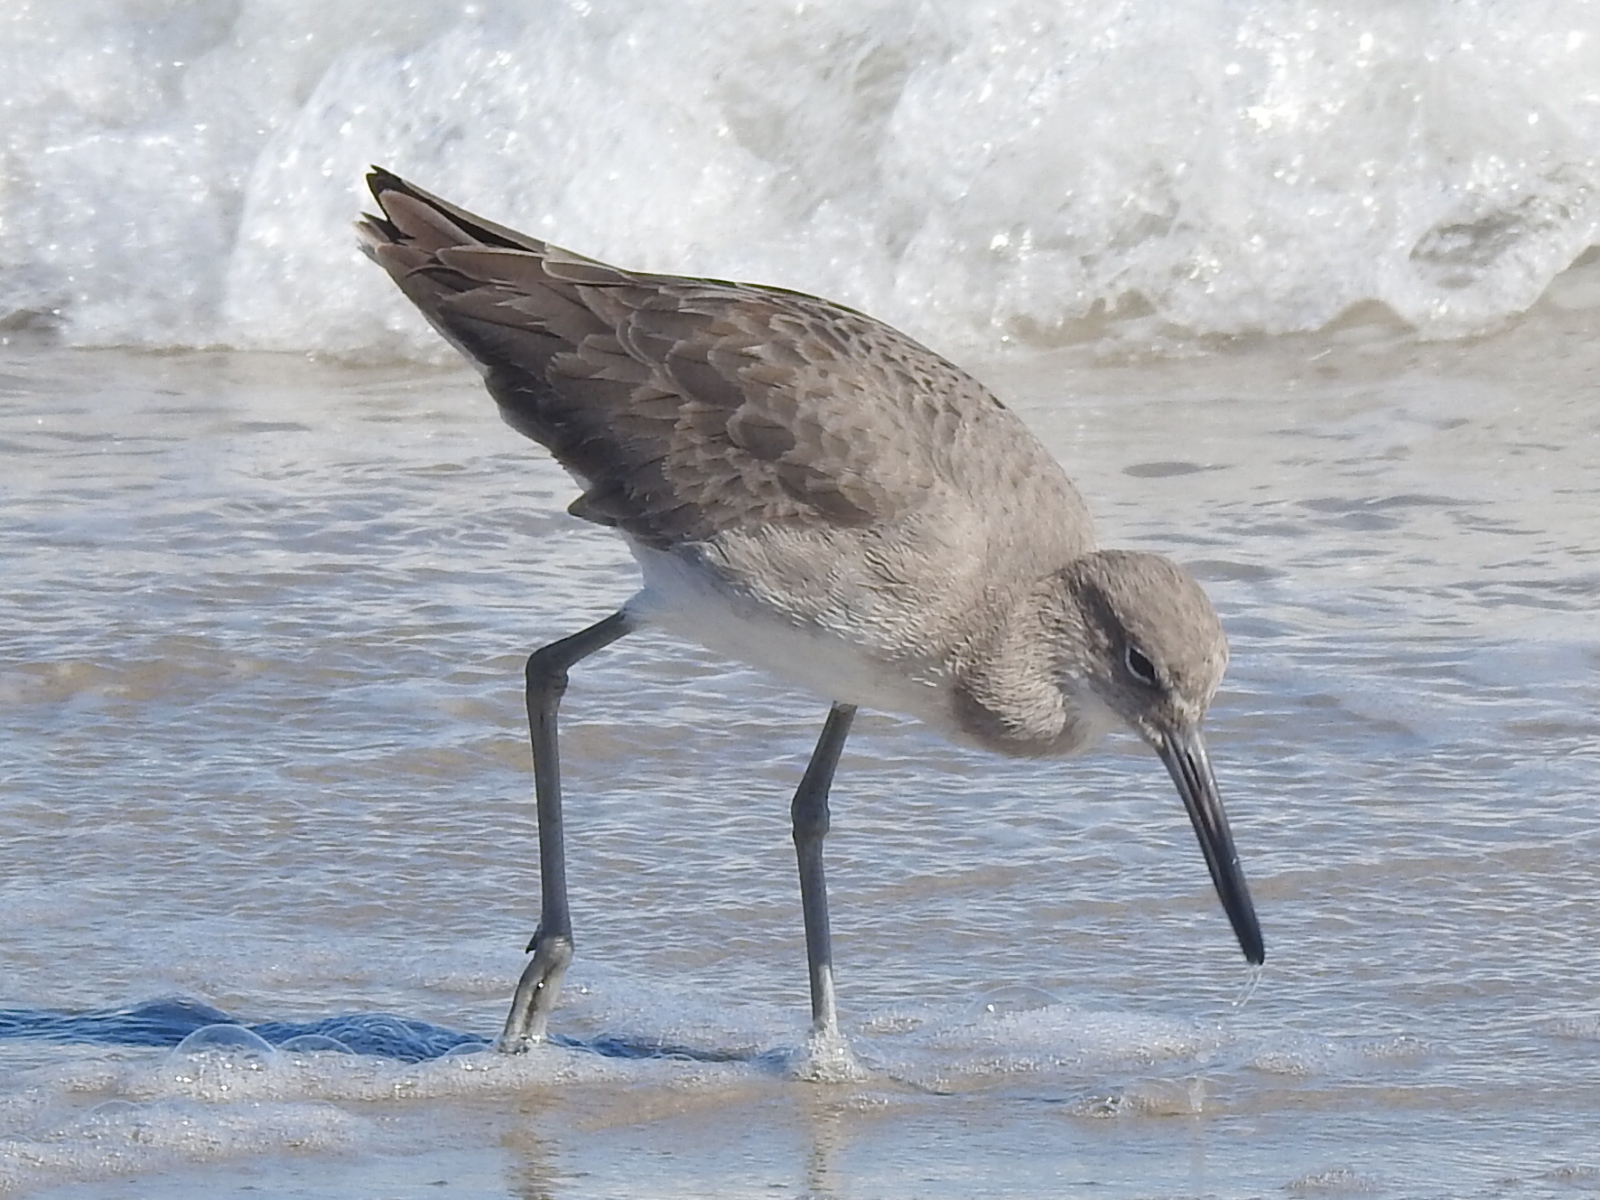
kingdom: Animalia
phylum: Chordata
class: Aves
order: Charadriiformes
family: Scolopacidae
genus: Tringa
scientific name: Tringa semipalmata
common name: Willet
